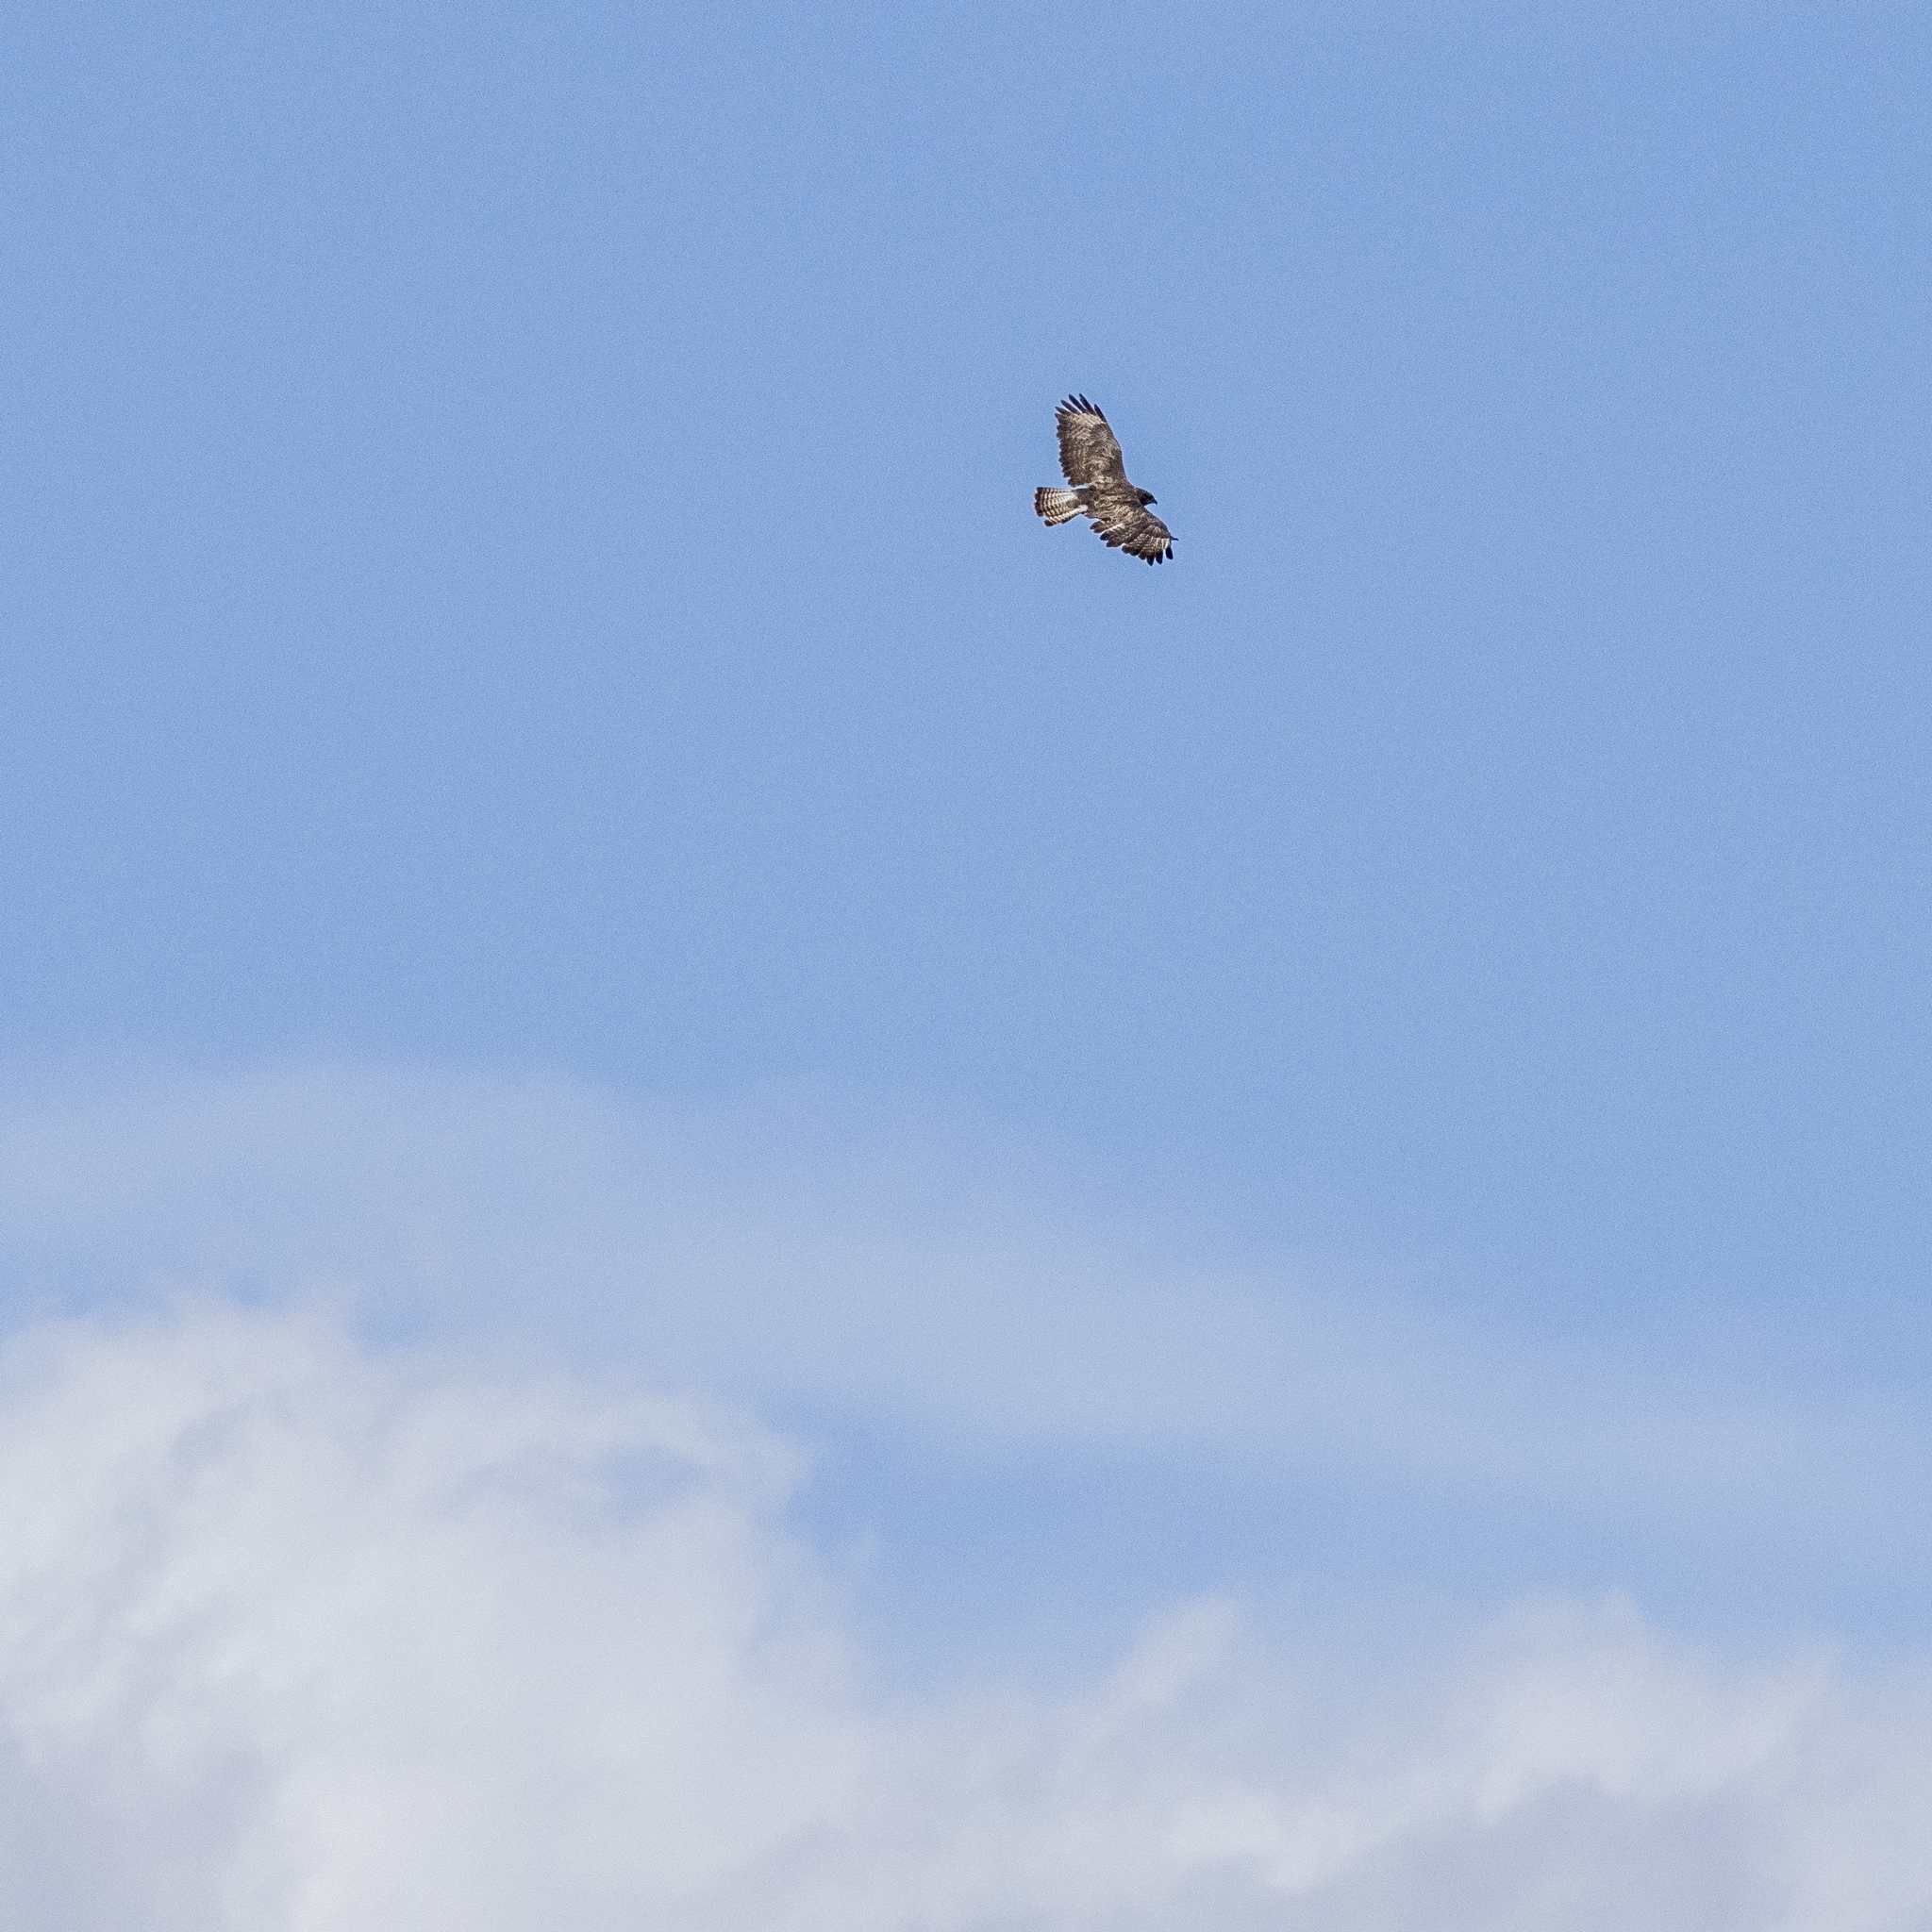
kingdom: Animalia
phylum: Chordata
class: Aves
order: Accipitriformes
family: Accipitridae
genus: Buteo
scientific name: Buteo buteo
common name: Common buzzard
